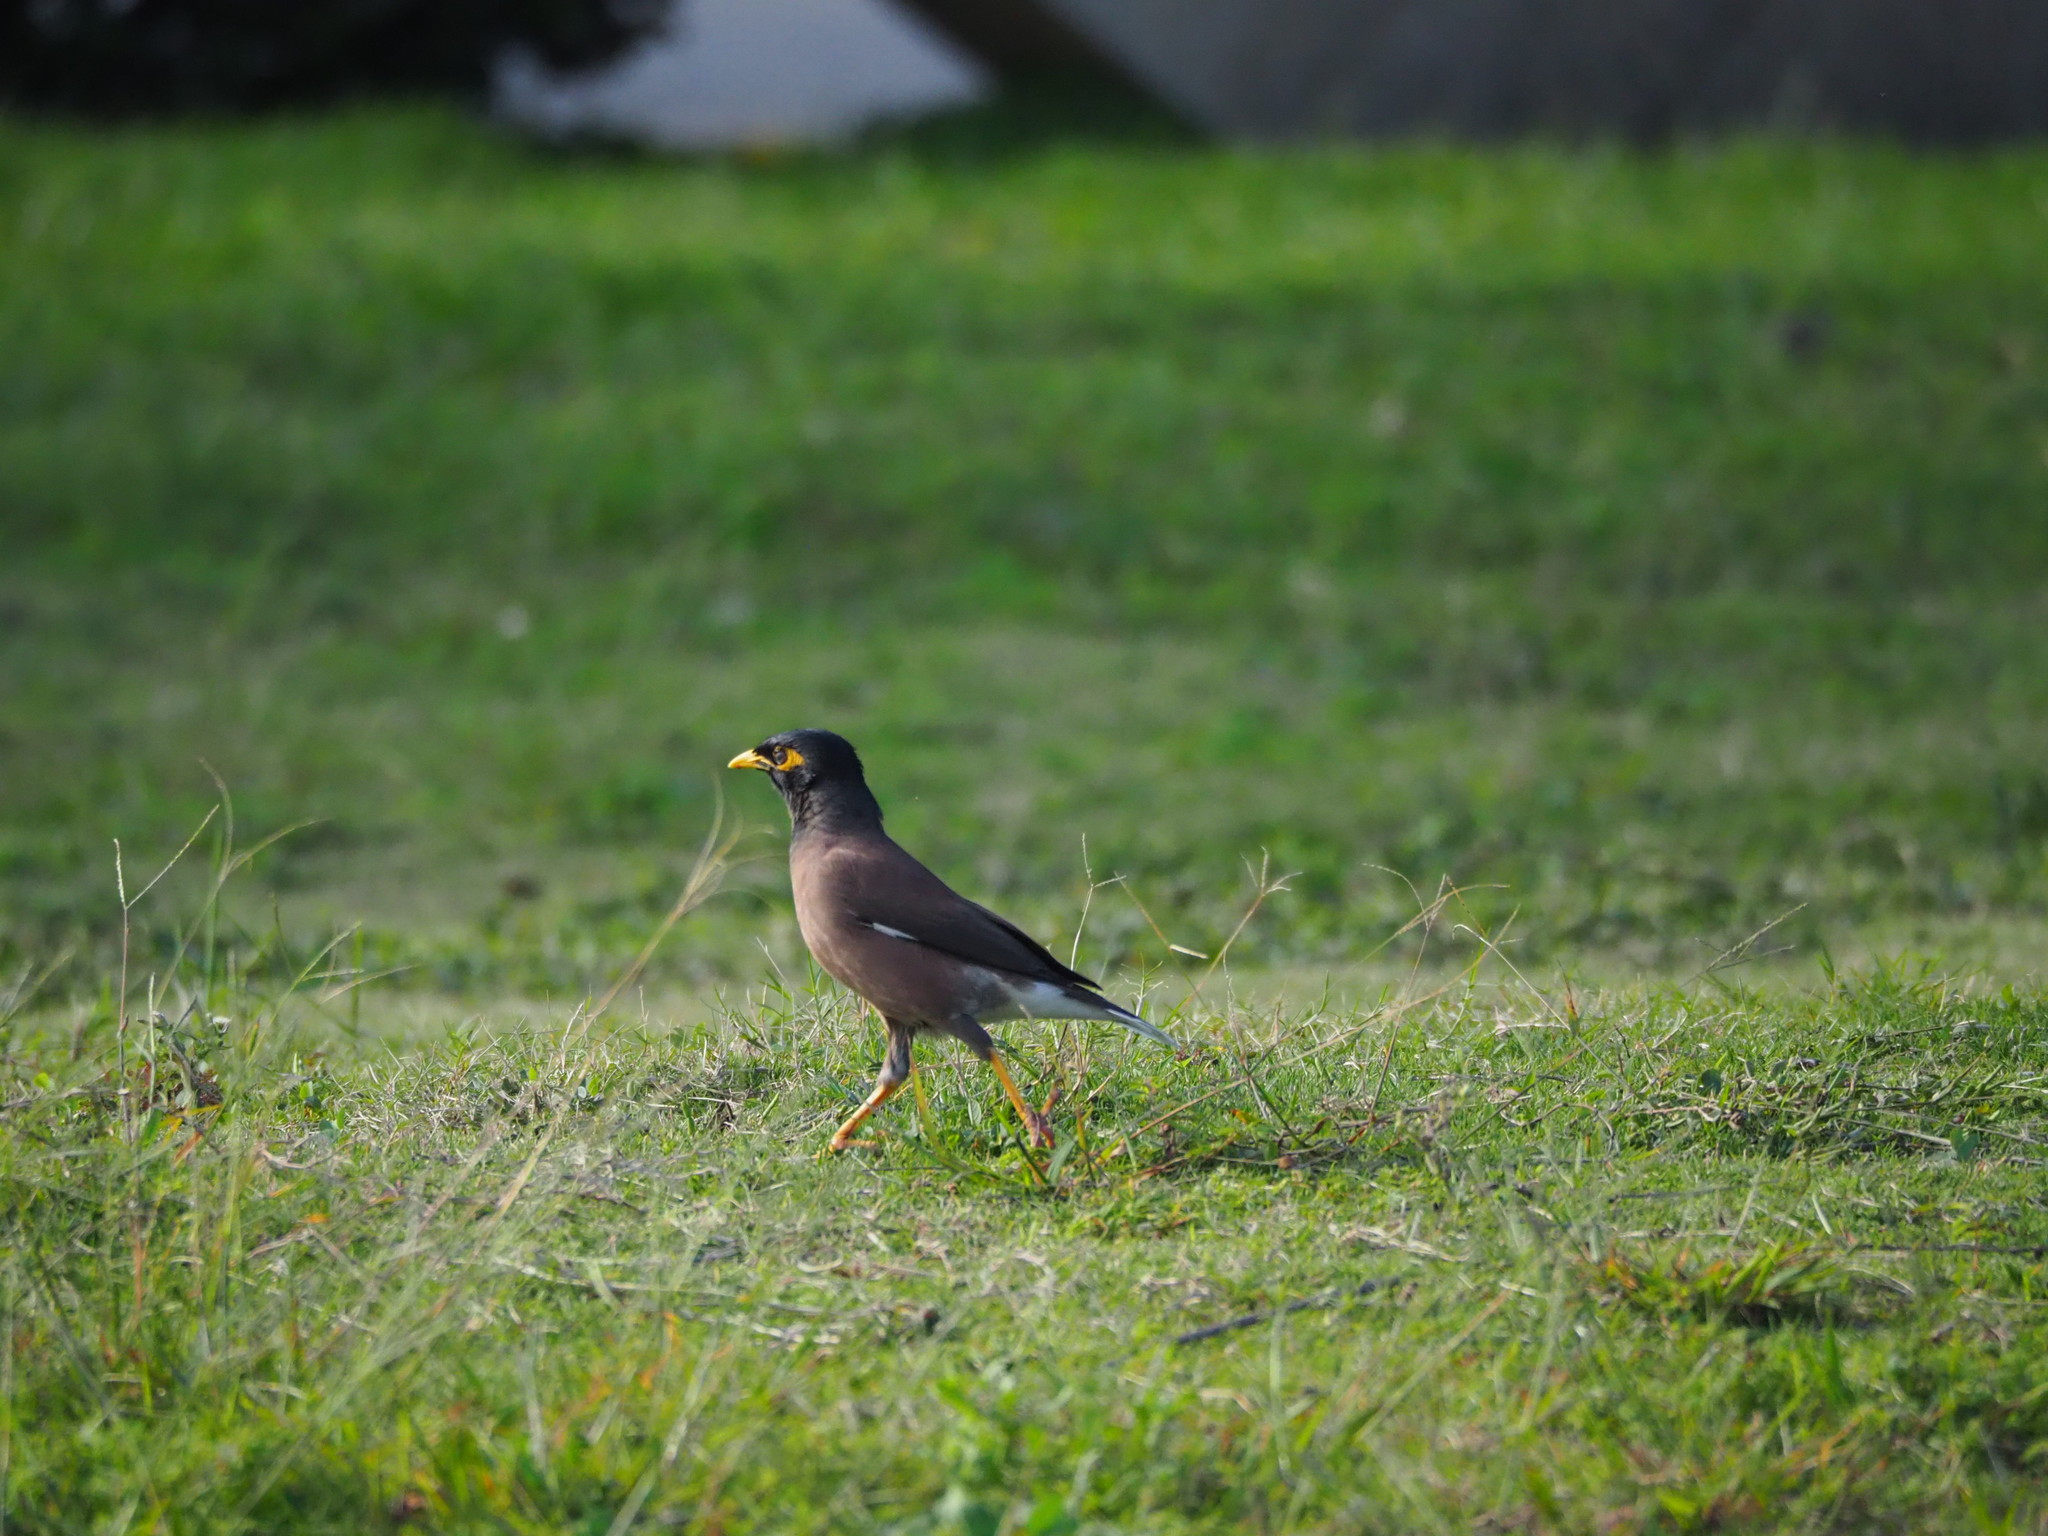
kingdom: Animalia
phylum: Chordata
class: Aves
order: Passeriformes
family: Sturnidae
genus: Acridotheres
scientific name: Acridotheres tristis
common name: Common myna
